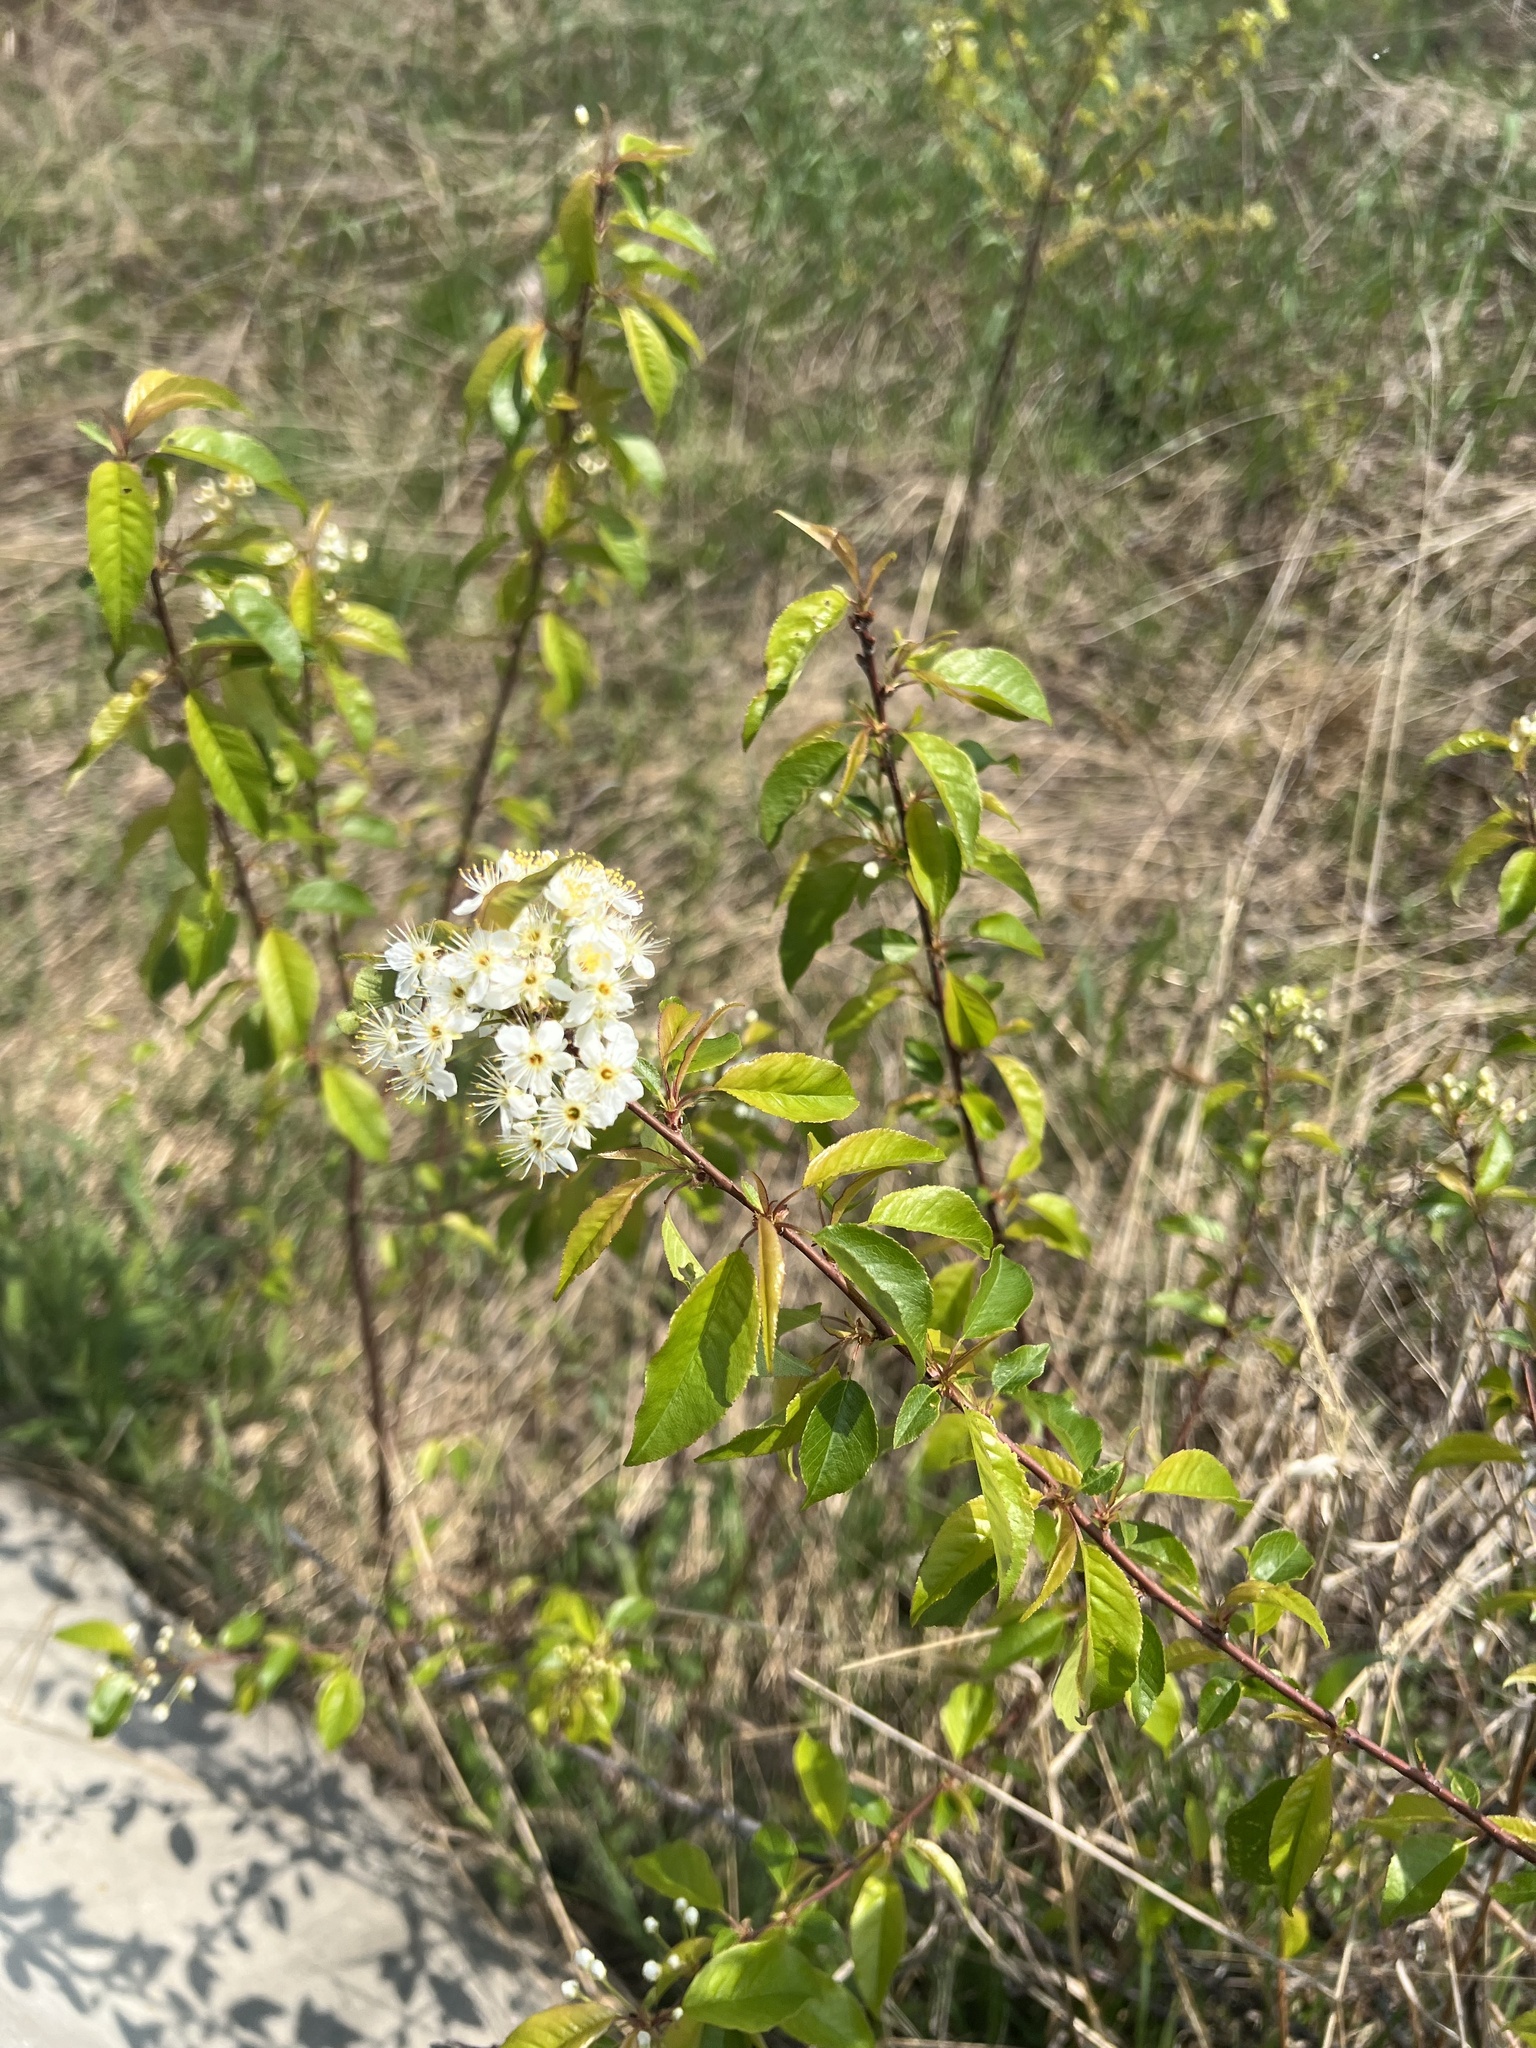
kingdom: Plantae
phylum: Tracheophyta
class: Magnoliopsida
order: Rosales
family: Rosaceae
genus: Prunus
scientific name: Prunus pensylvanica
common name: Pin cherry
